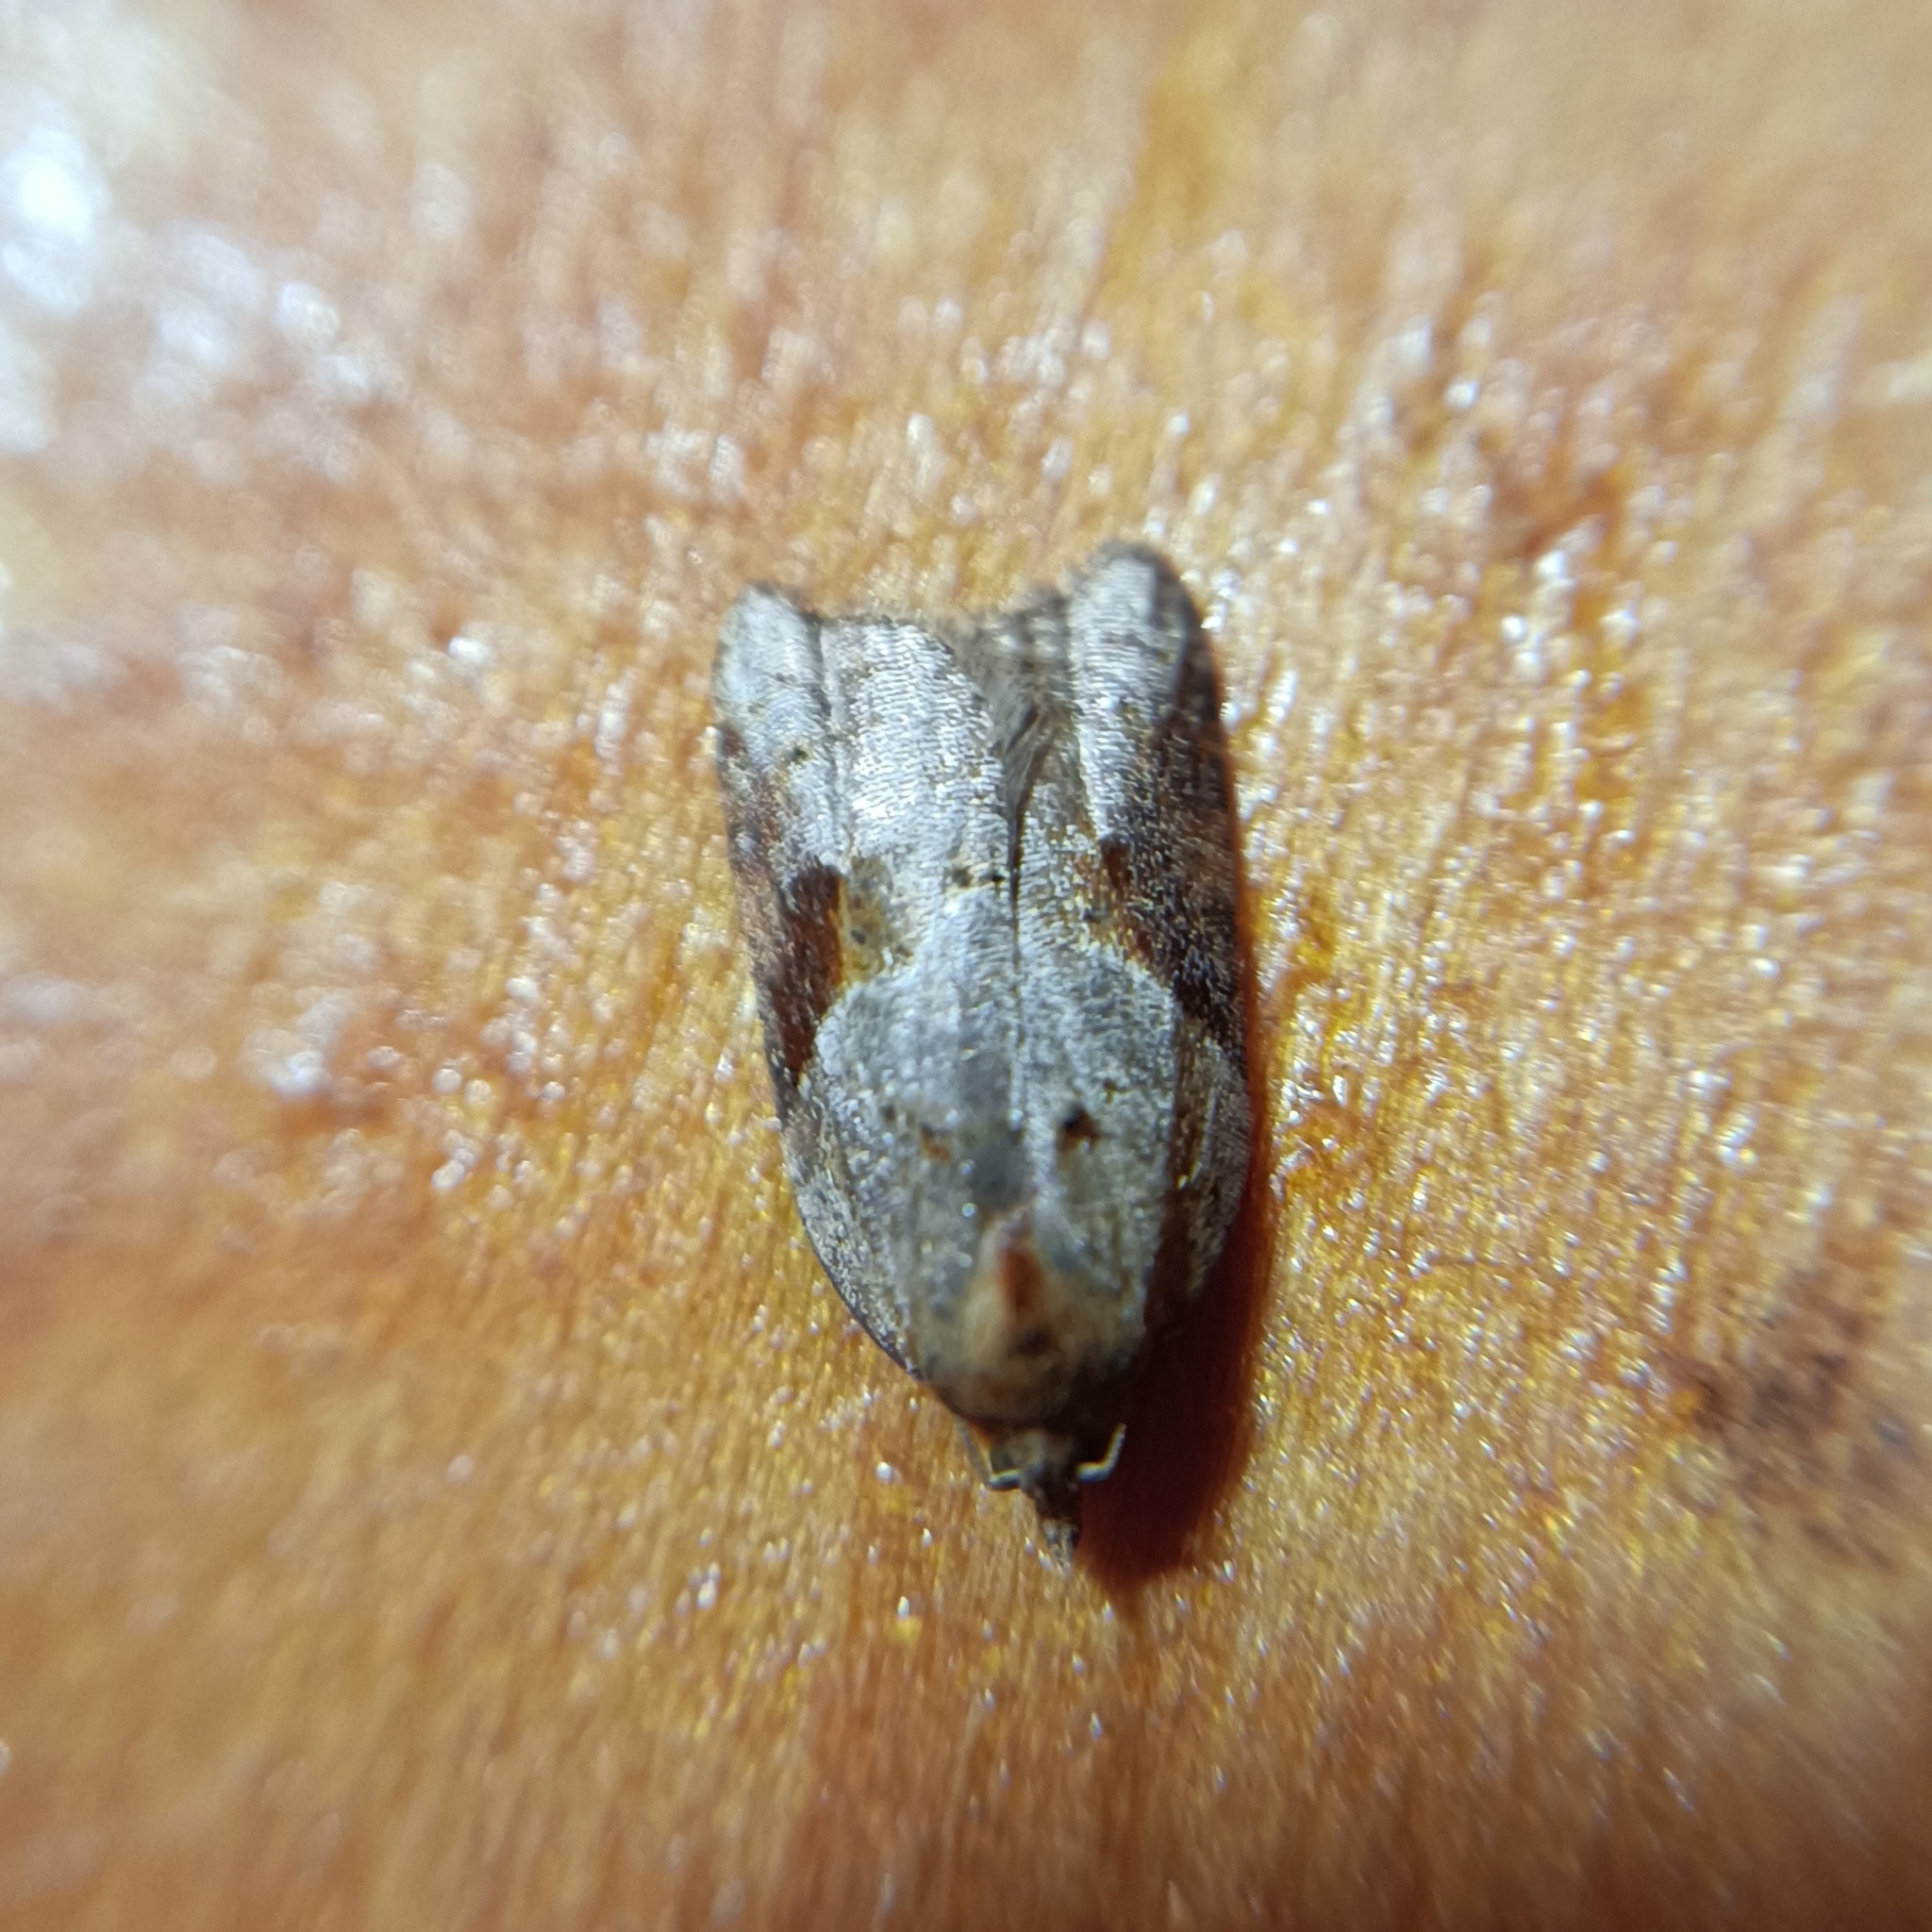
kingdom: Animalia
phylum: Arthropoda
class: Insecta
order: Lepidoptera
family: Tortricidae
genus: Acleris
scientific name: Acleris laterana
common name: Dark-triangle button
